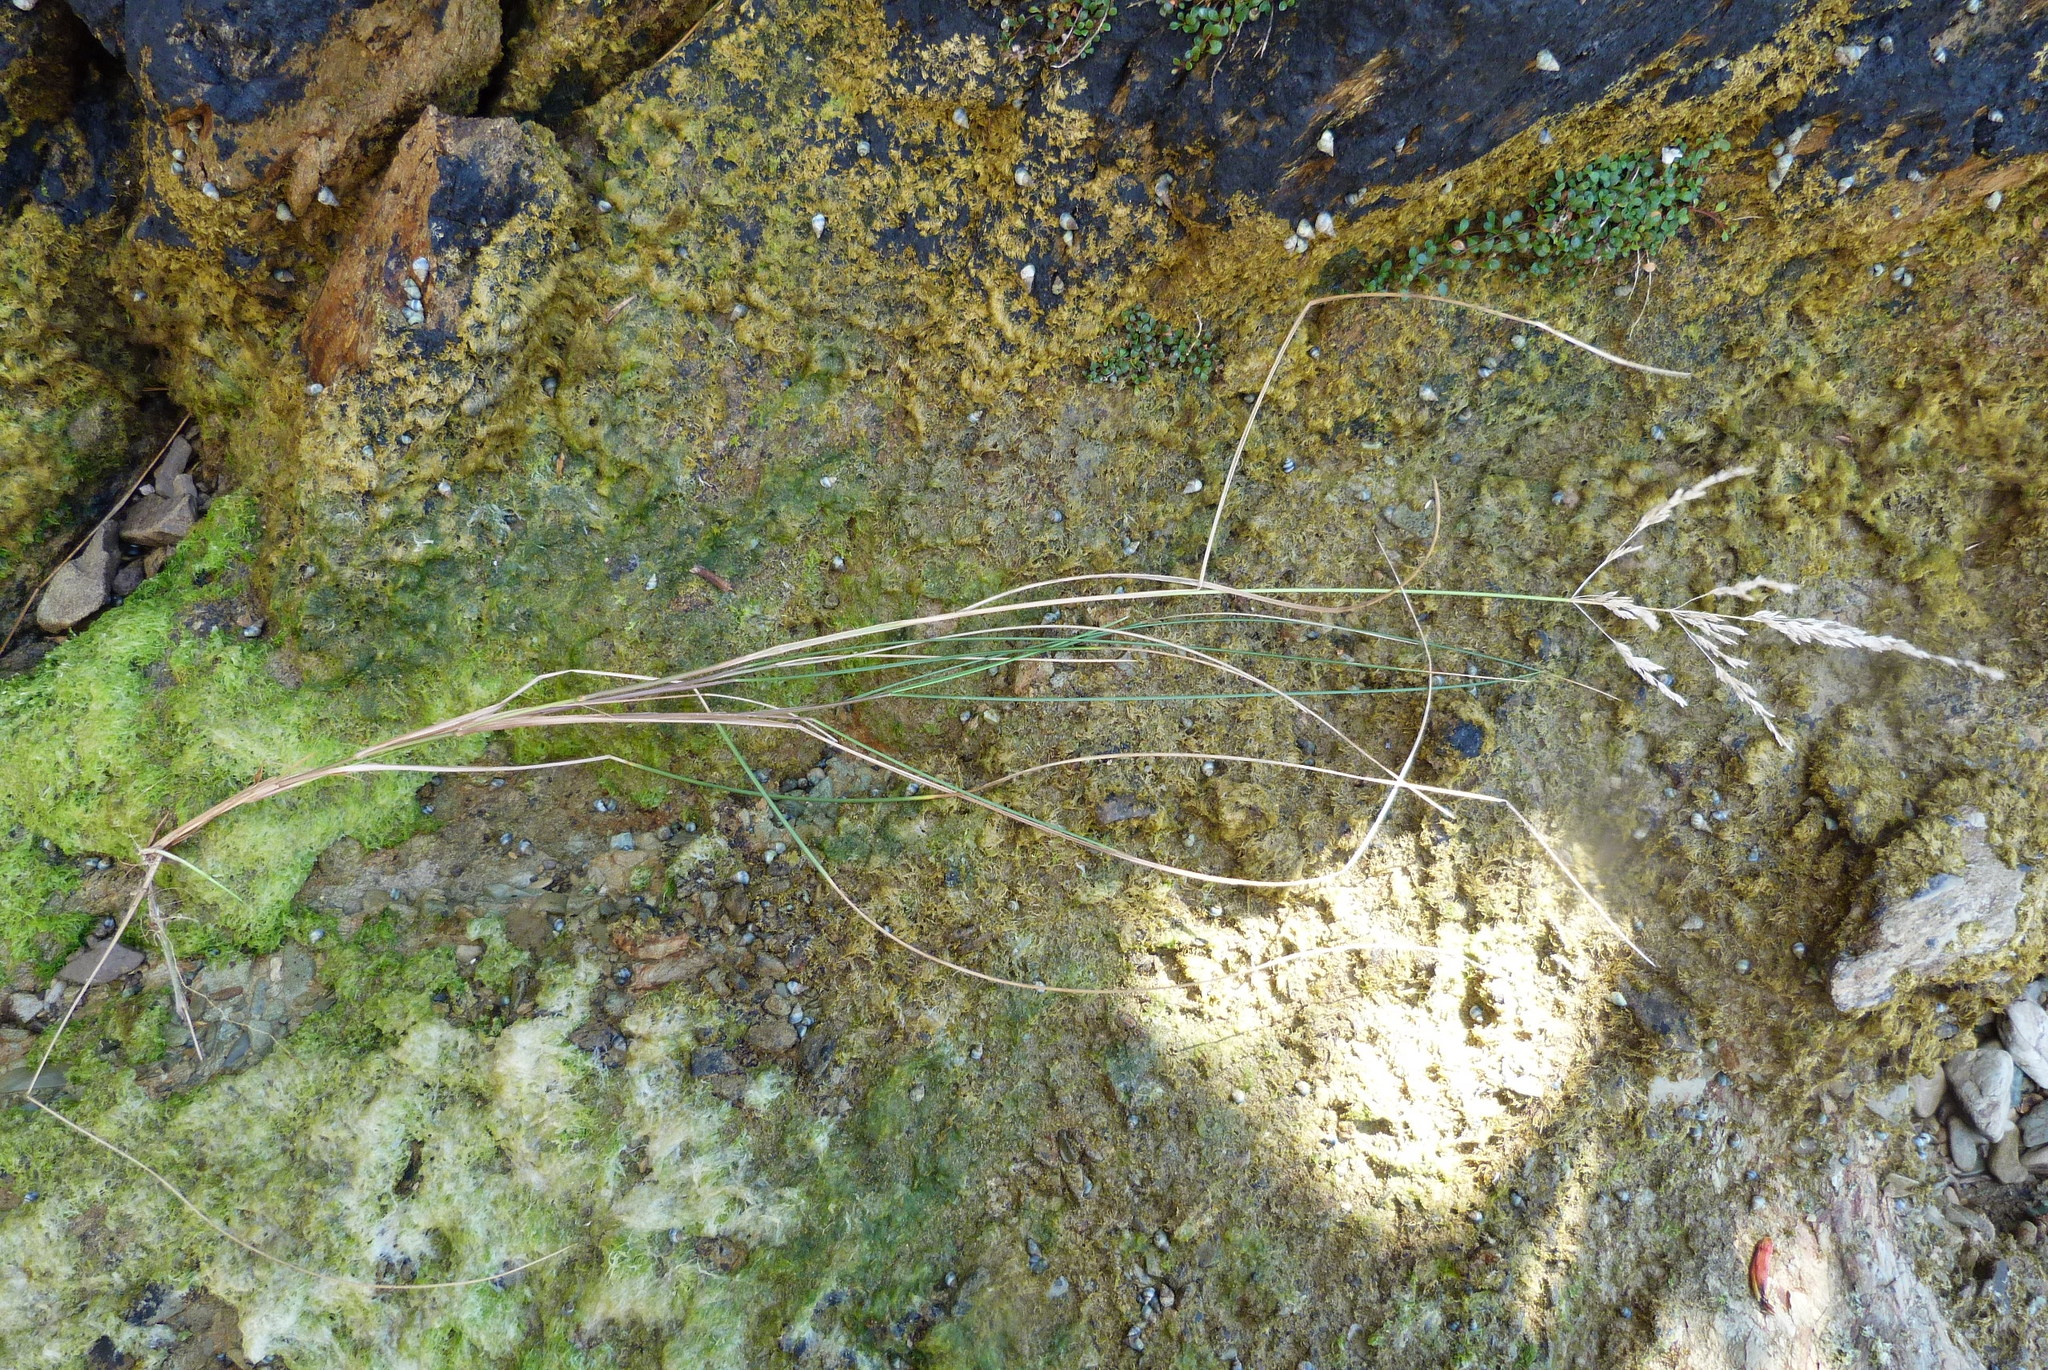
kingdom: Plantae
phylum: Tracheophyta
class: Liliopsida
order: Poales
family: Poaceae
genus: Poa
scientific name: Poa anceps
